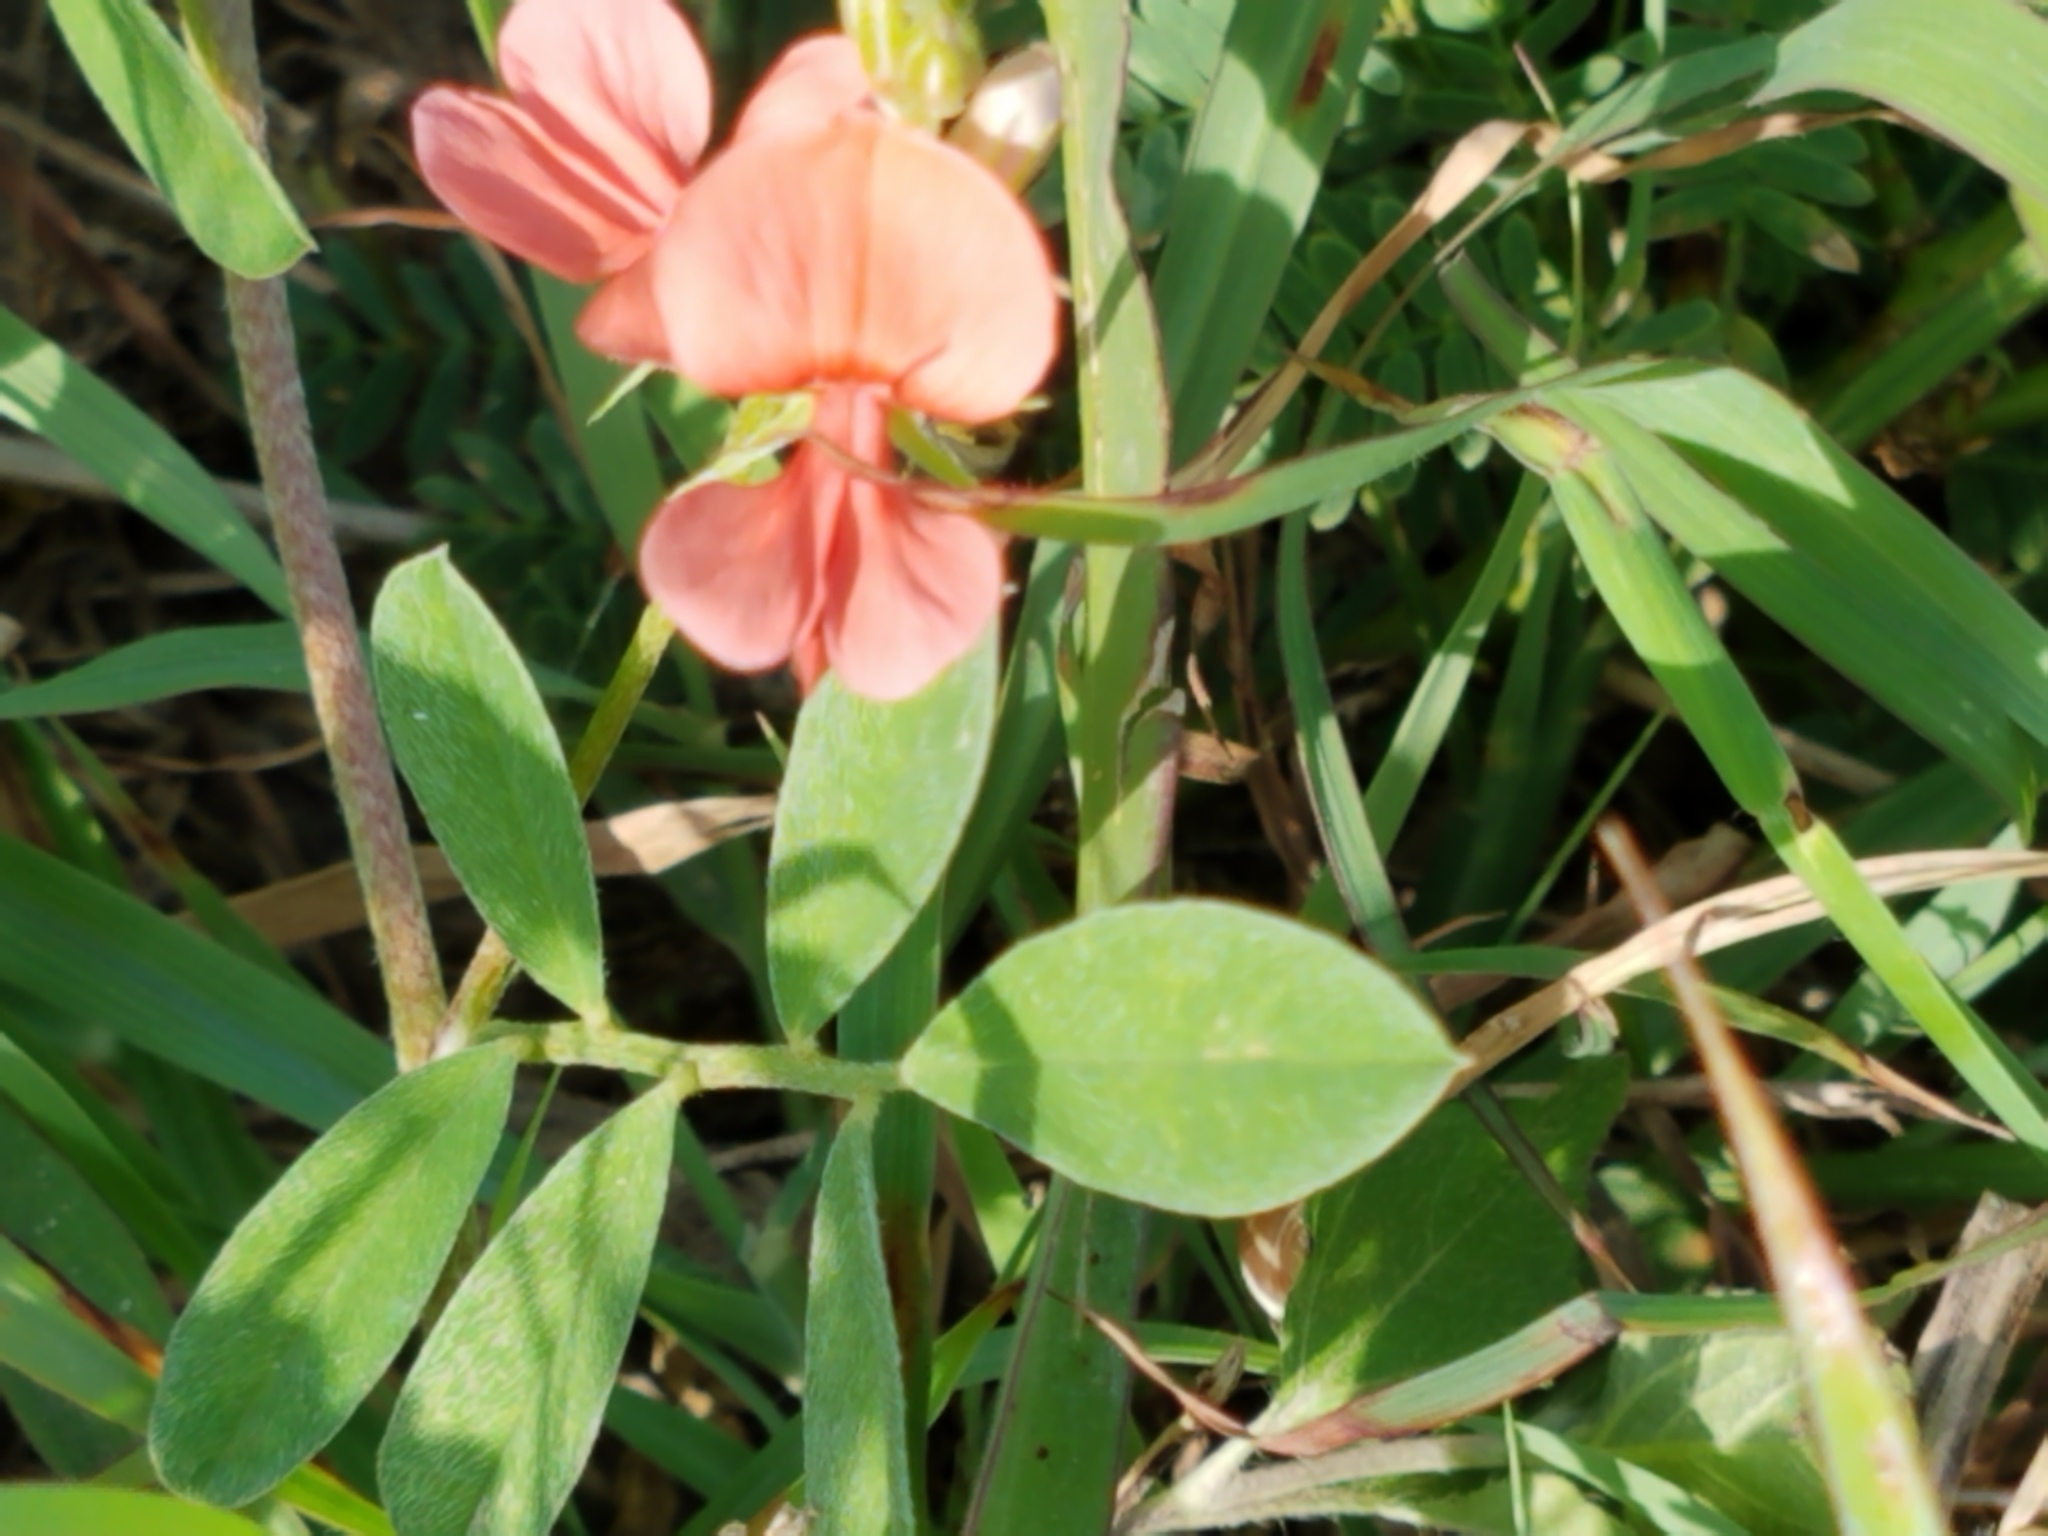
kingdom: Plantae
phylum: Tracheophyta
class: Magnoliopsida
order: Fabales
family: Fabaceae
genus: Indigofera
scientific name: Indigofera miniata
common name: Coast indigo
